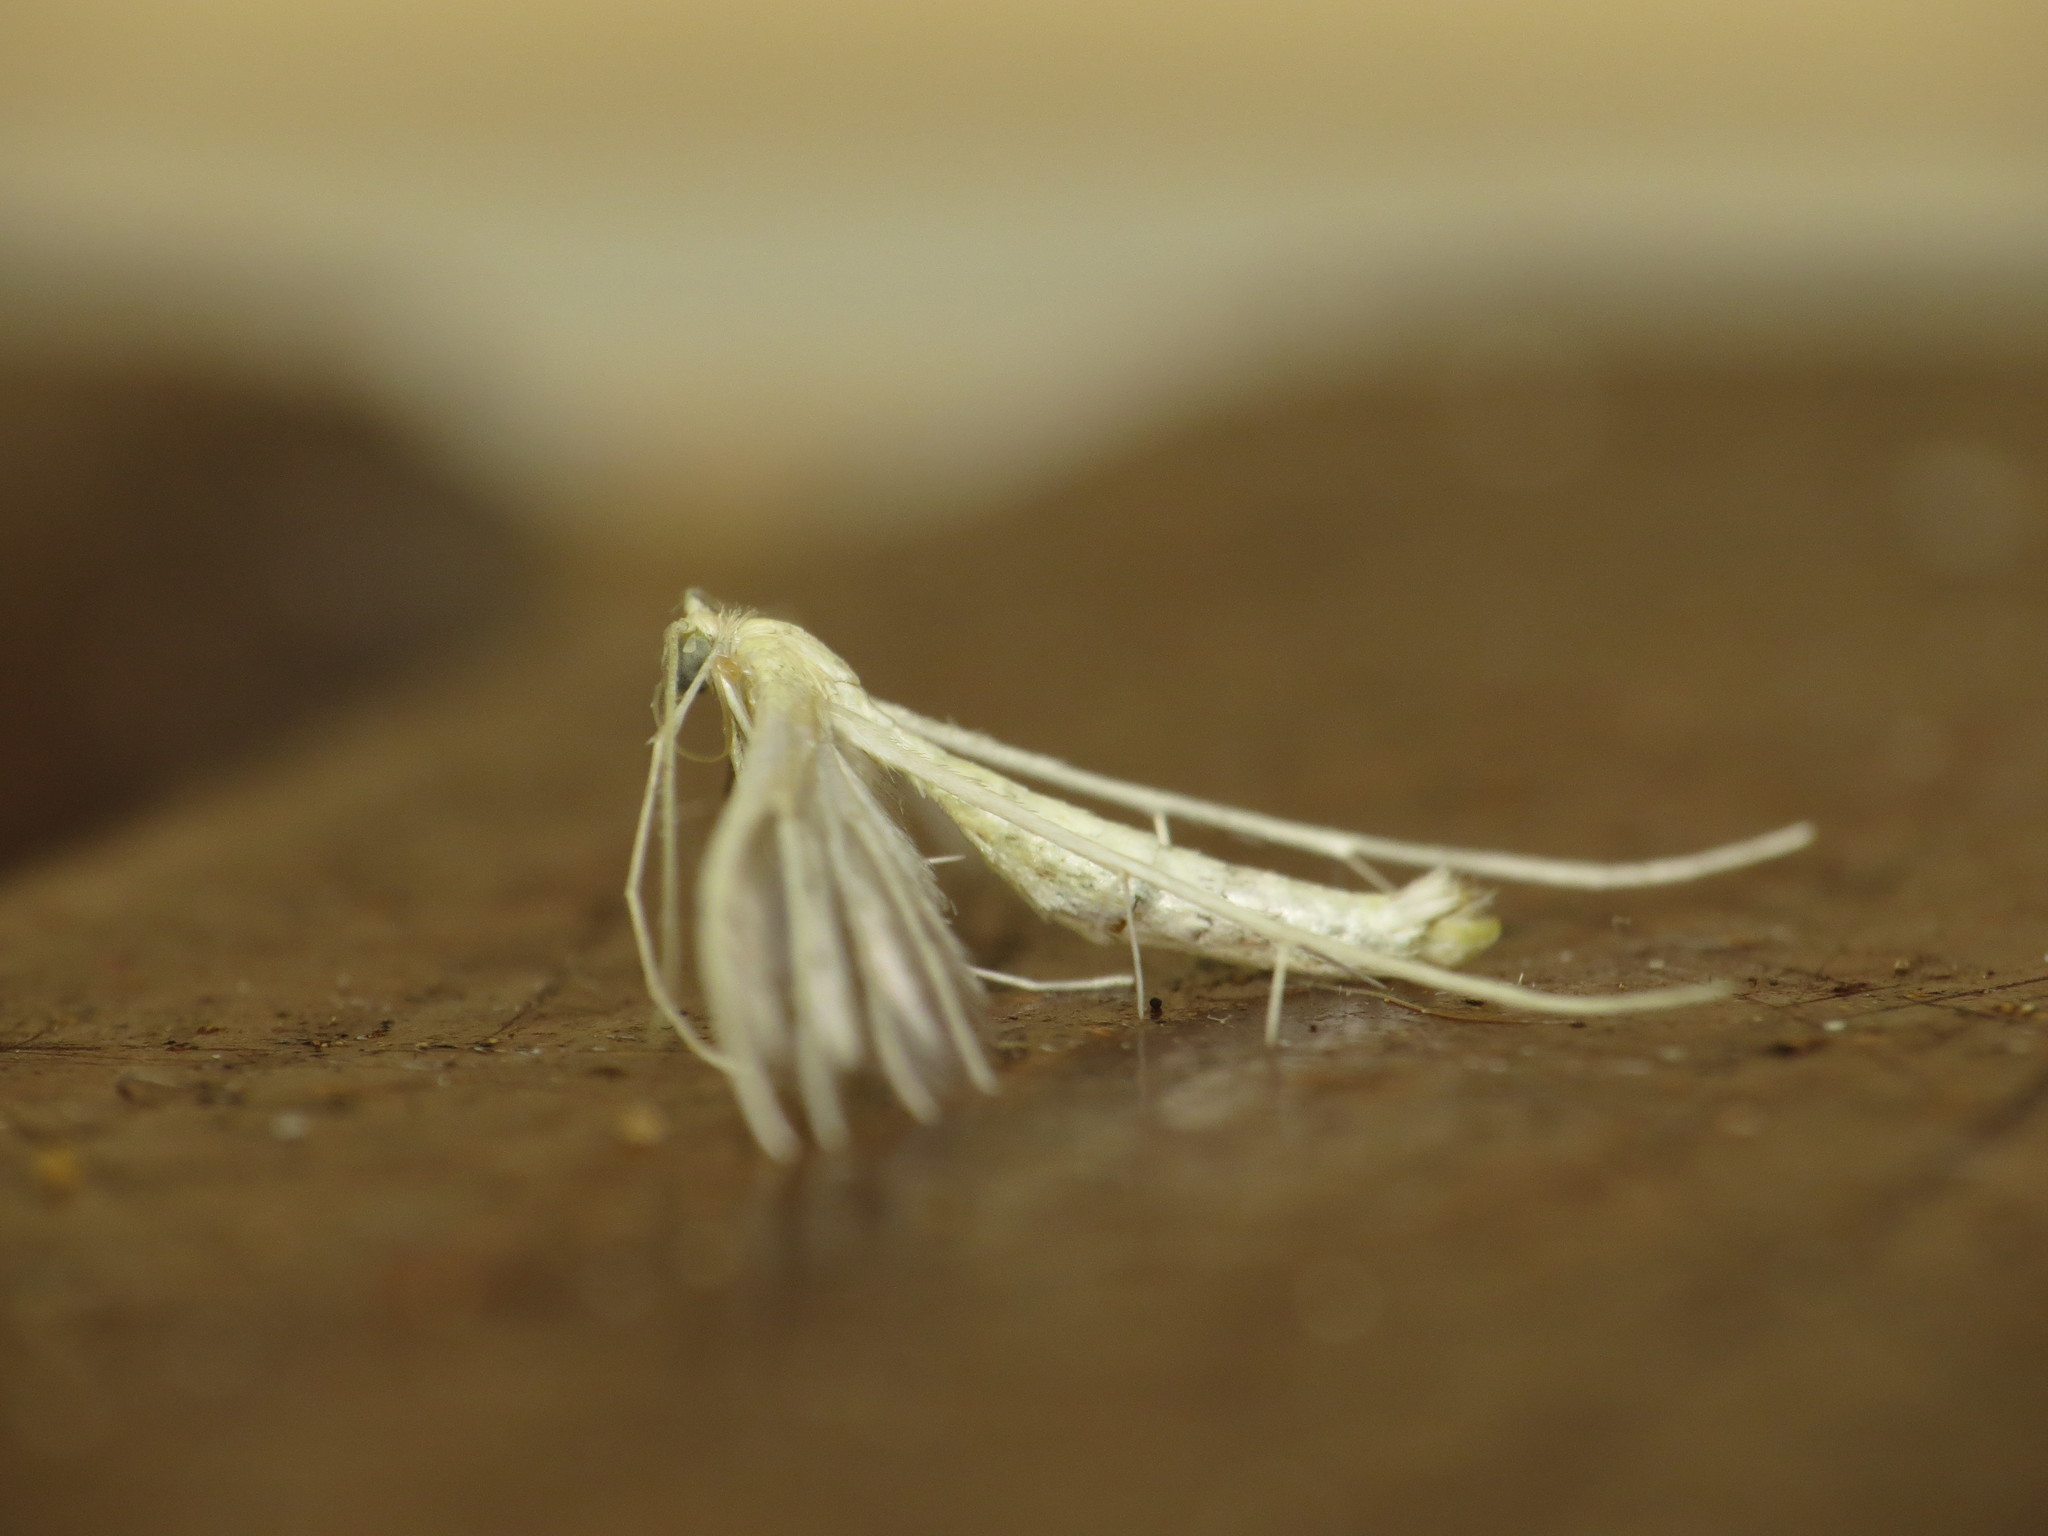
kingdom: Animalia
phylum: Arthropoda
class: Insecta
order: Lepidoptera
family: Pterophoridae
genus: Pterophorus
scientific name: Pterophorus albidus
